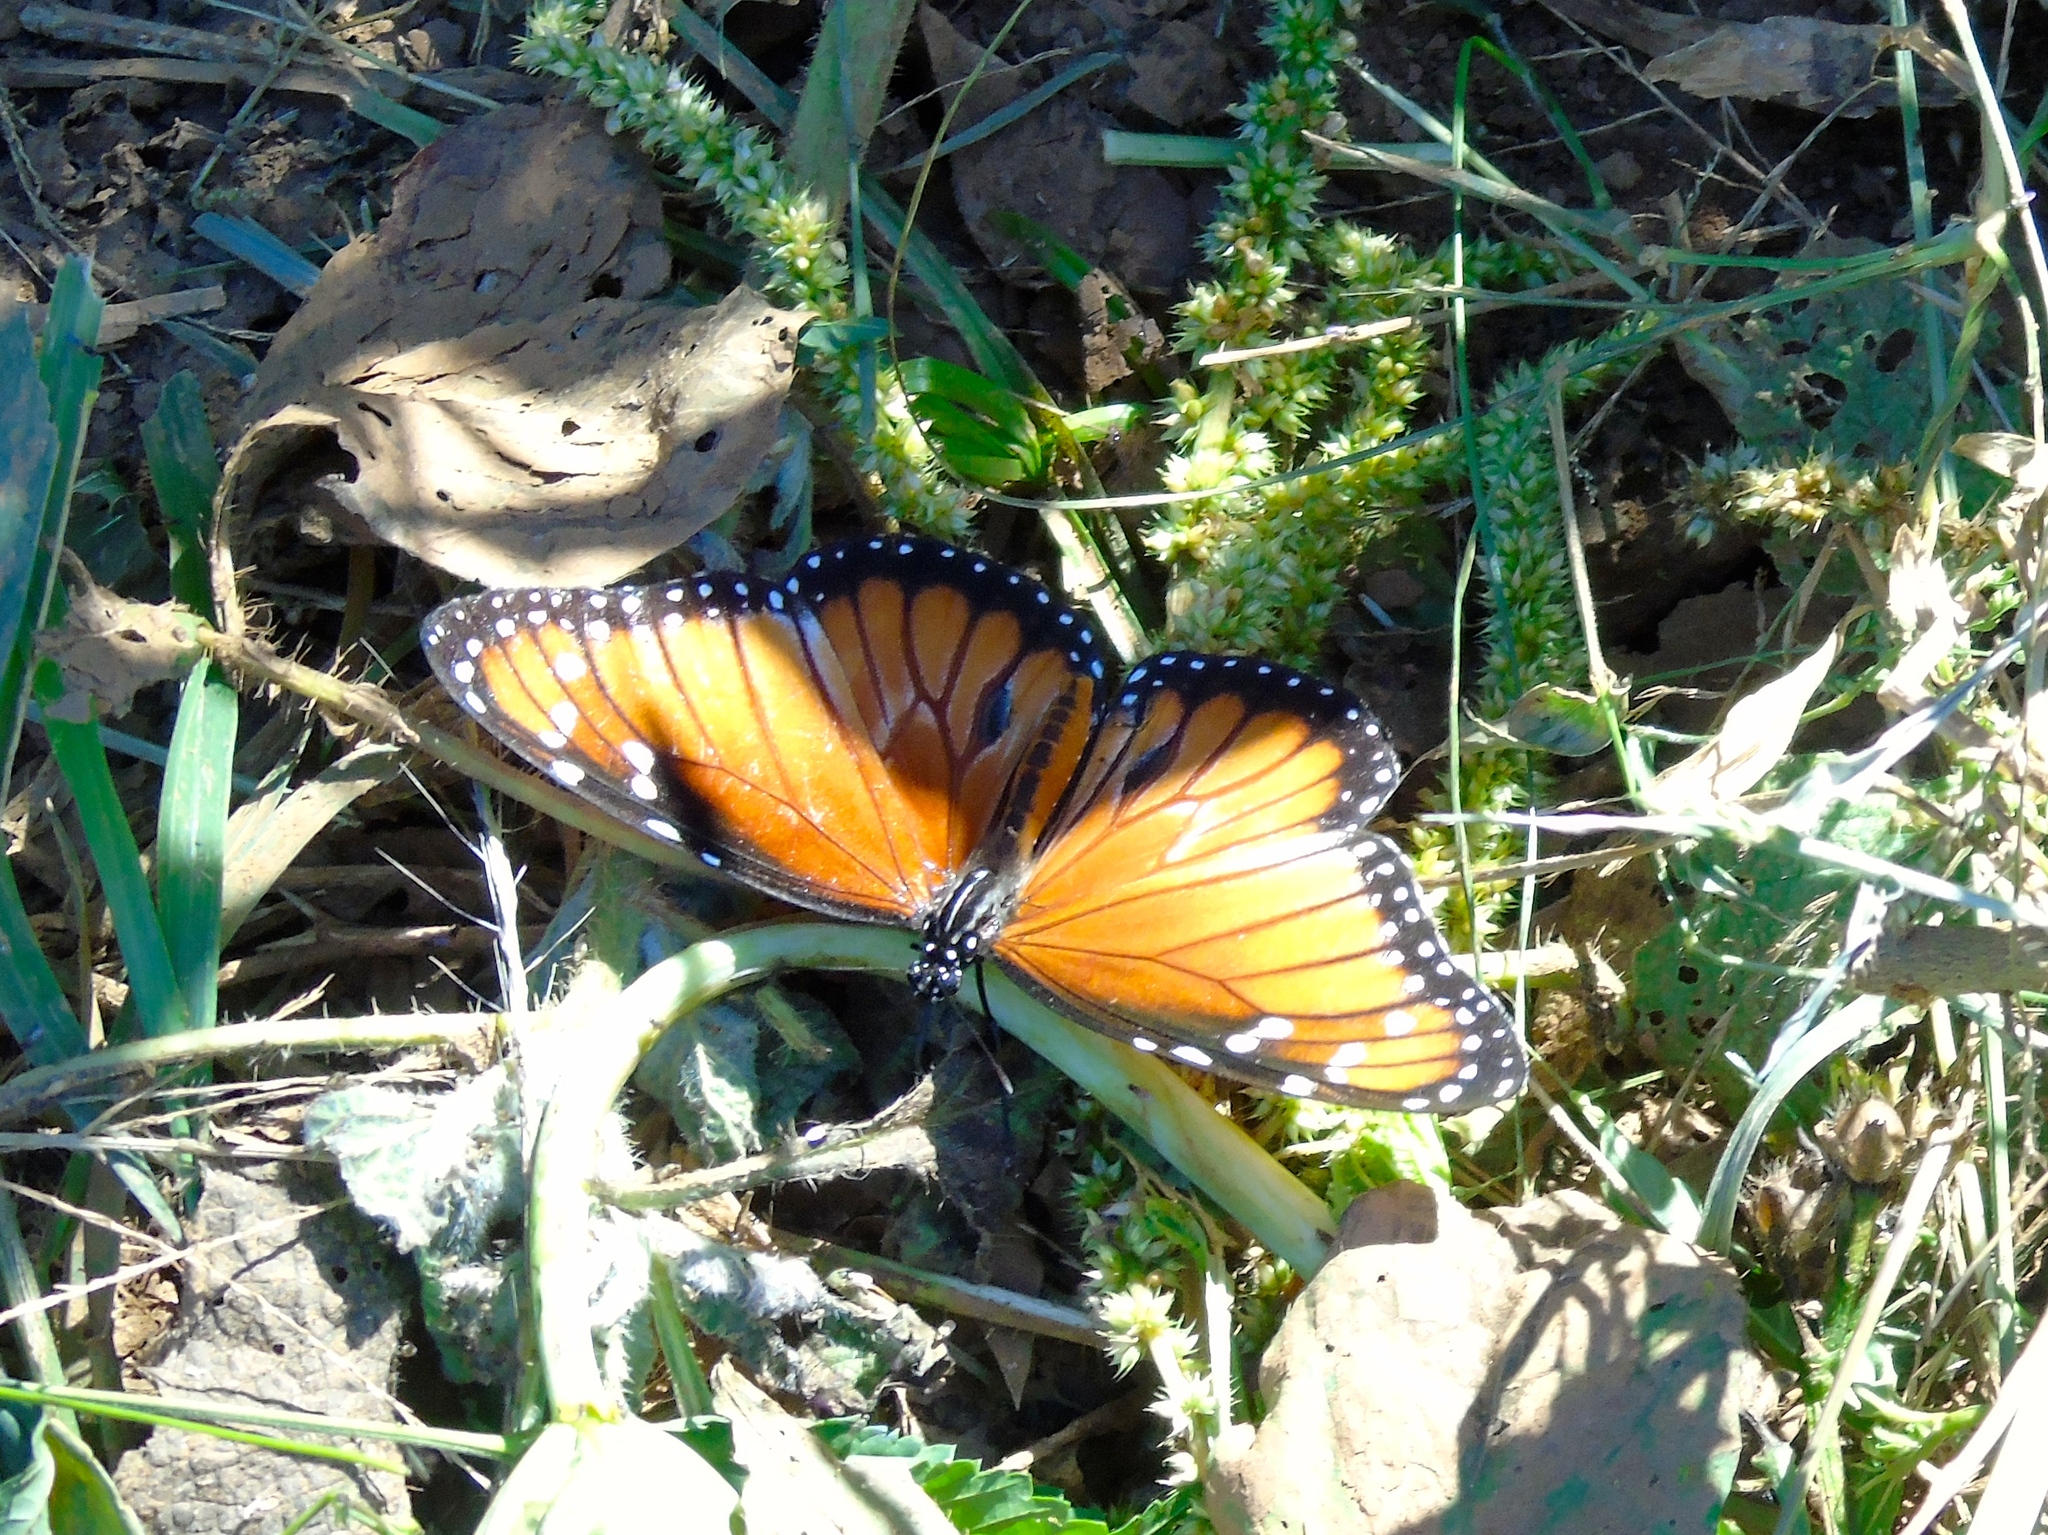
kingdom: Animalia
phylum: Arthropoda
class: Insecta
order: Lepidoptera
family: Nymphalidae
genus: Danaus
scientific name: Danaus eresimus
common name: Soldier
